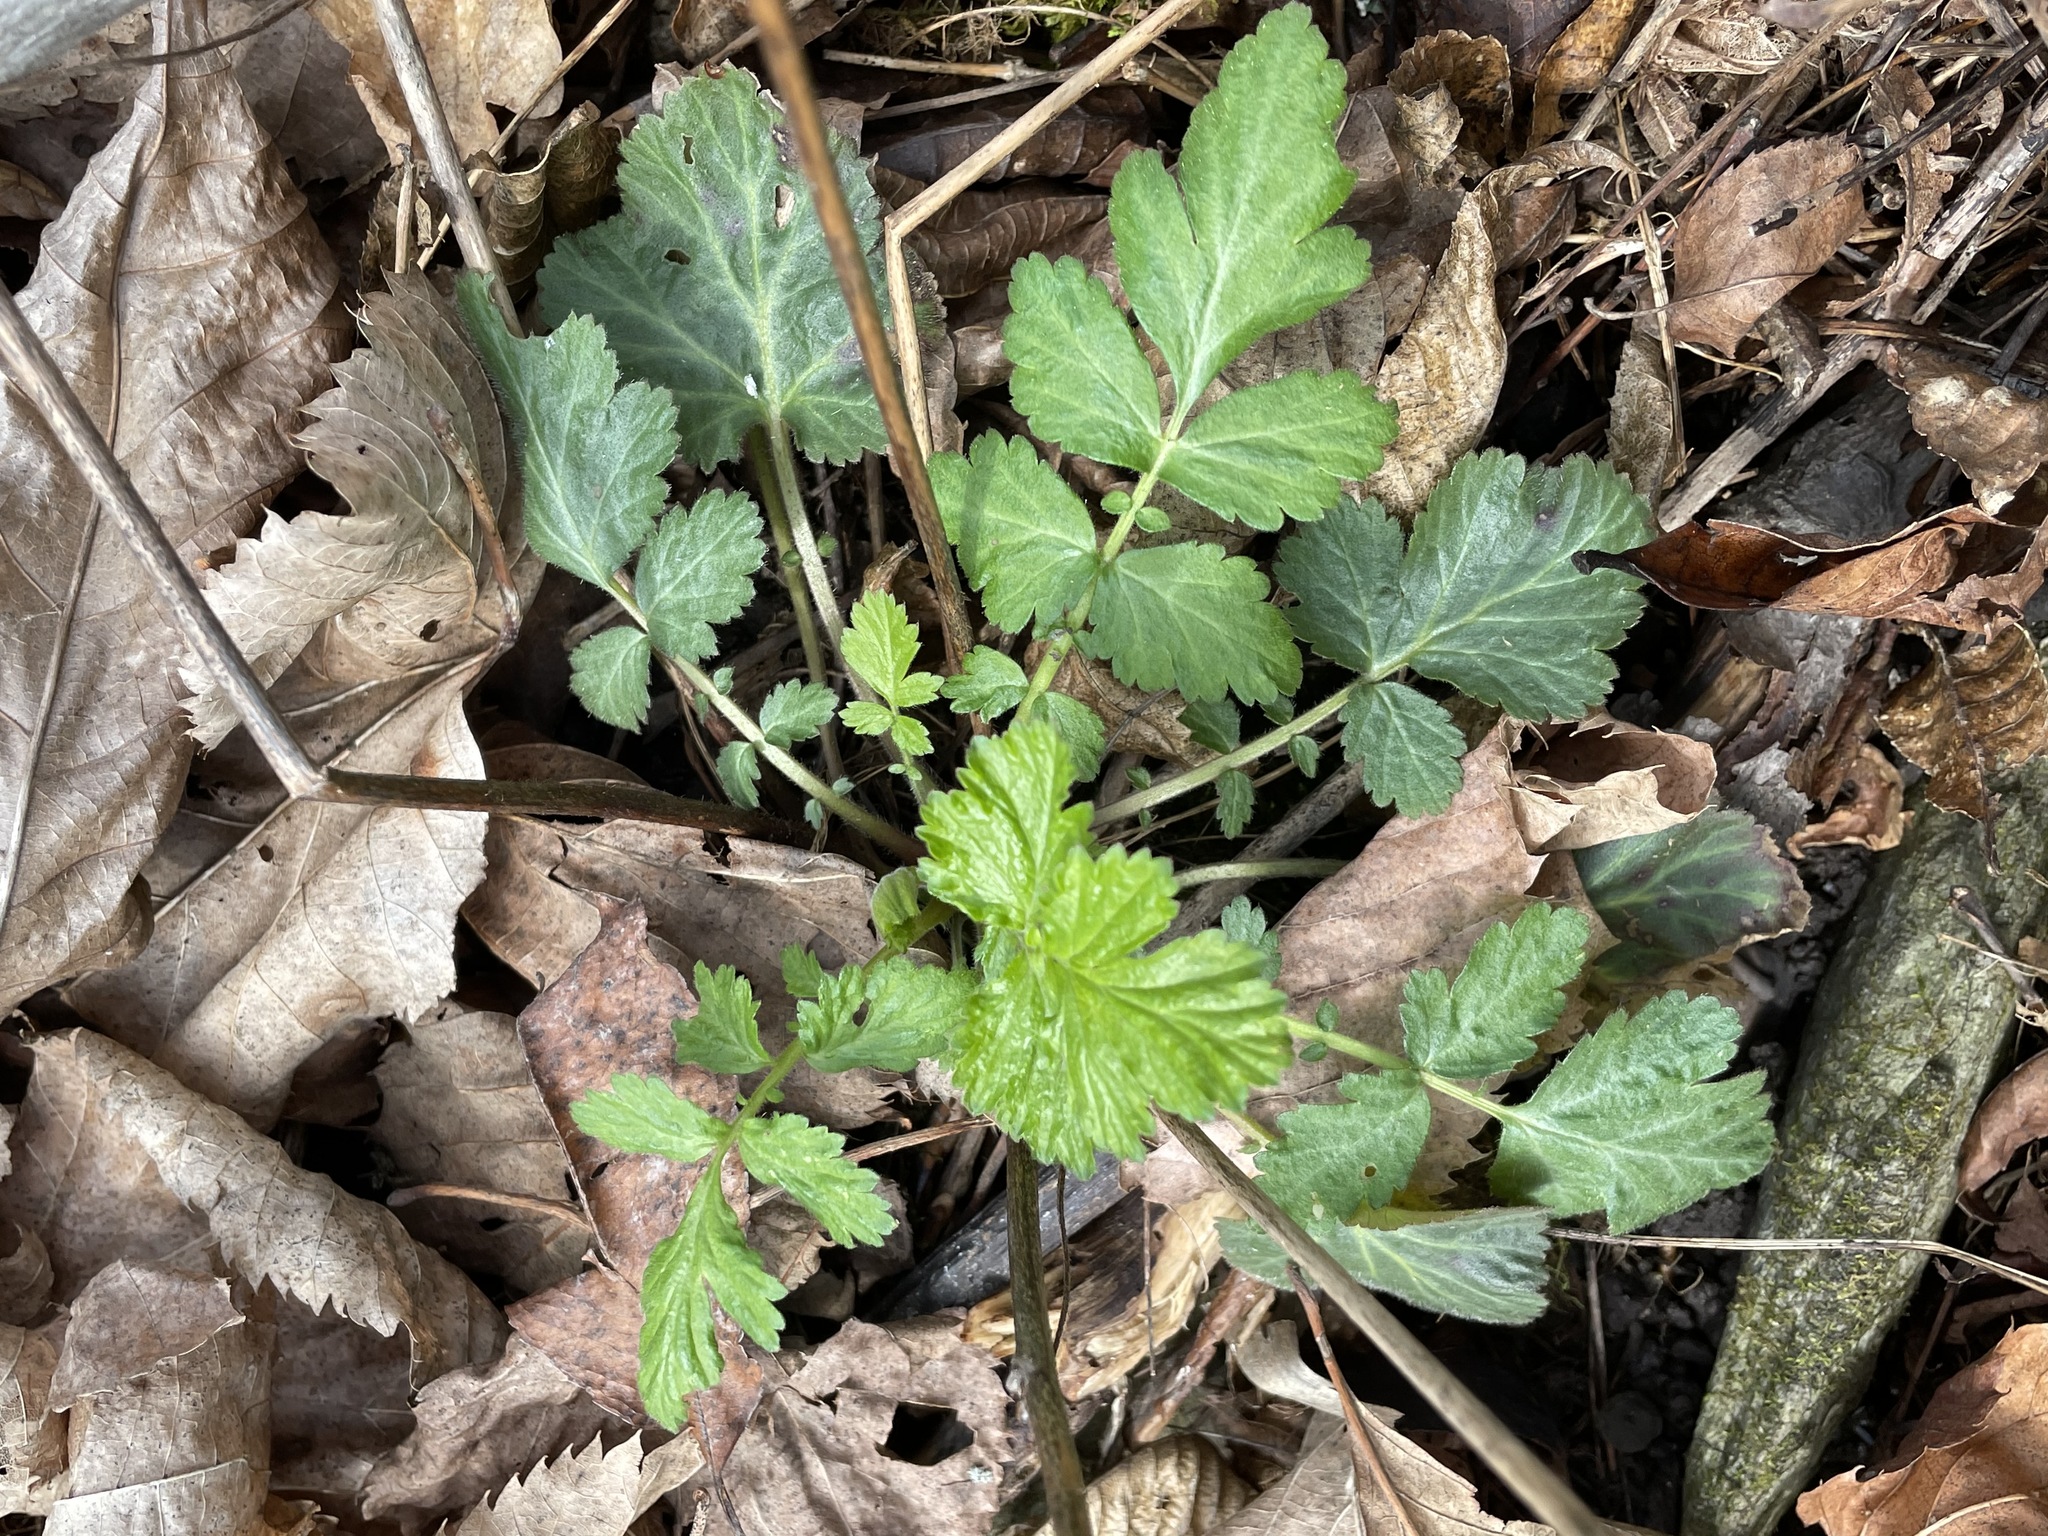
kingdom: Plantae
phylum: Tracheophyta
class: Magnoliopsida
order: Rosales
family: Rosaceae
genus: Geum
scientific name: Geum canadense
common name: White avens
